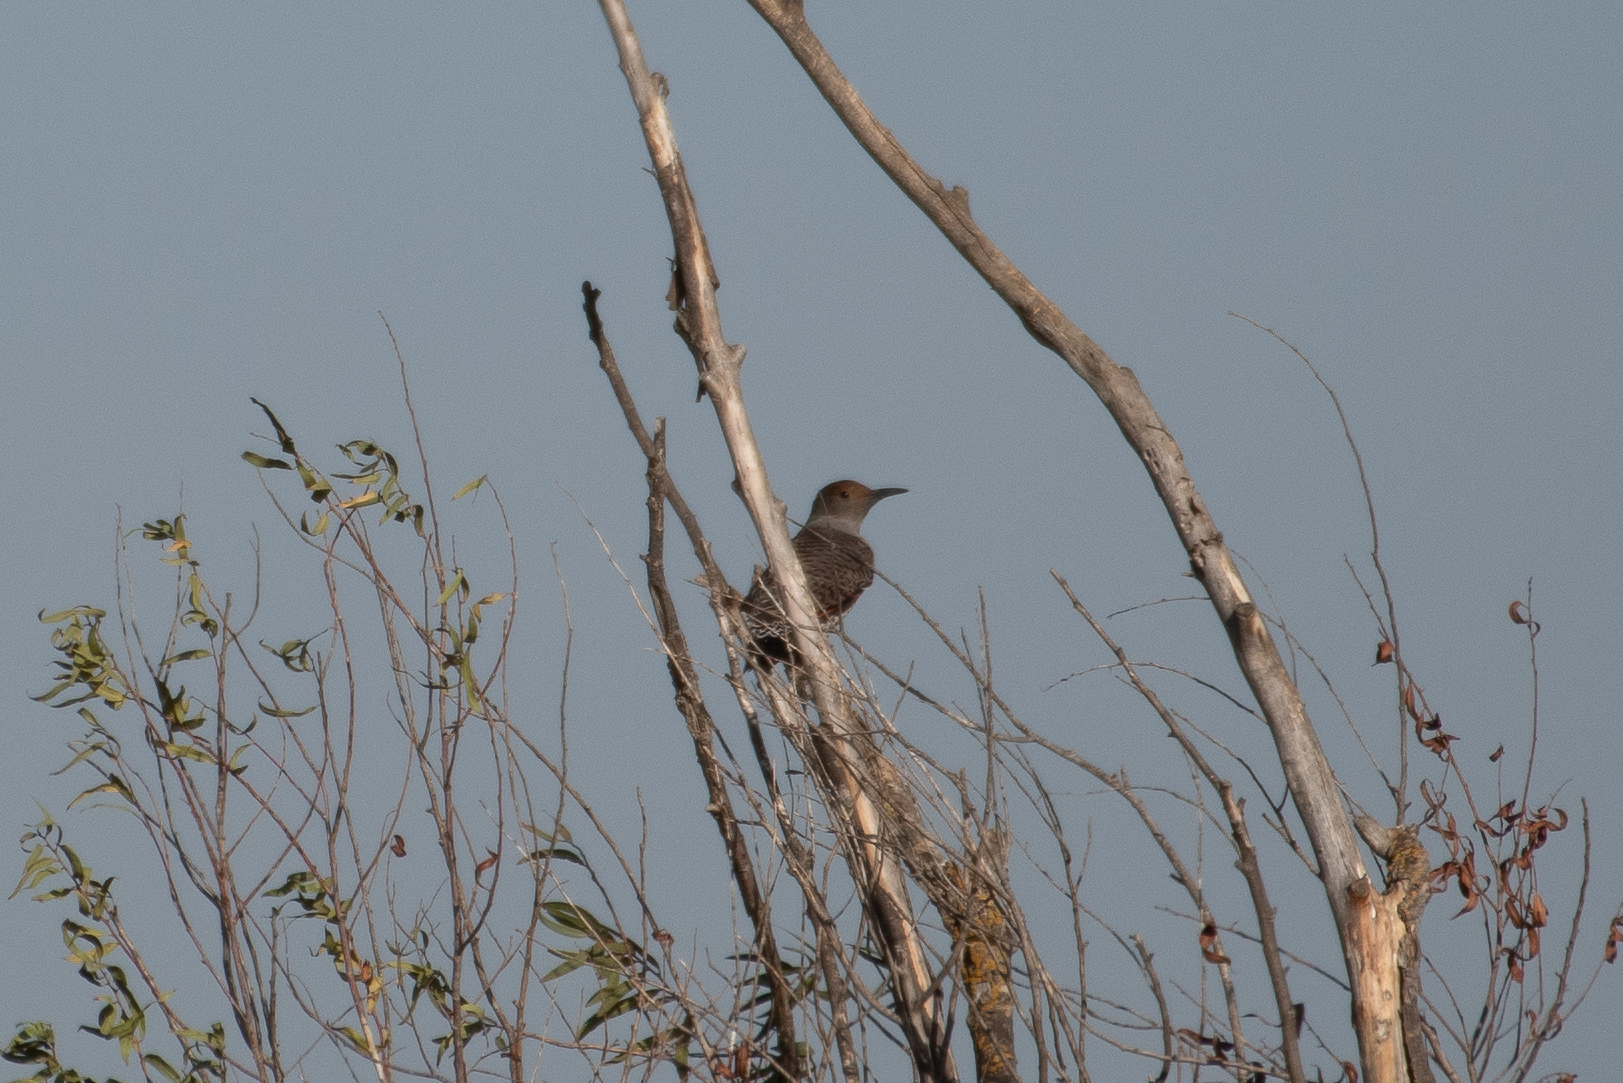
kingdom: Animalia
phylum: Chordata
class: Aves
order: Piciformes
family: Picidae
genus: Colaptes
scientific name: Colaptes auratus
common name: Northern flicker
